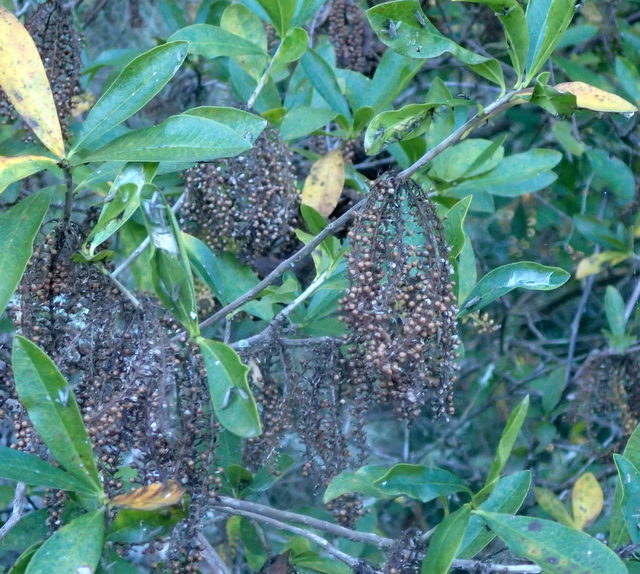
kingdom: Plantae
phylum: Tracheophyta
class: Magnoliopsida
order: Ericales
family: Cyrillaceae
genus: Cyrilla
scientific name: Cyrilla racemiflora
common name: Black titi
